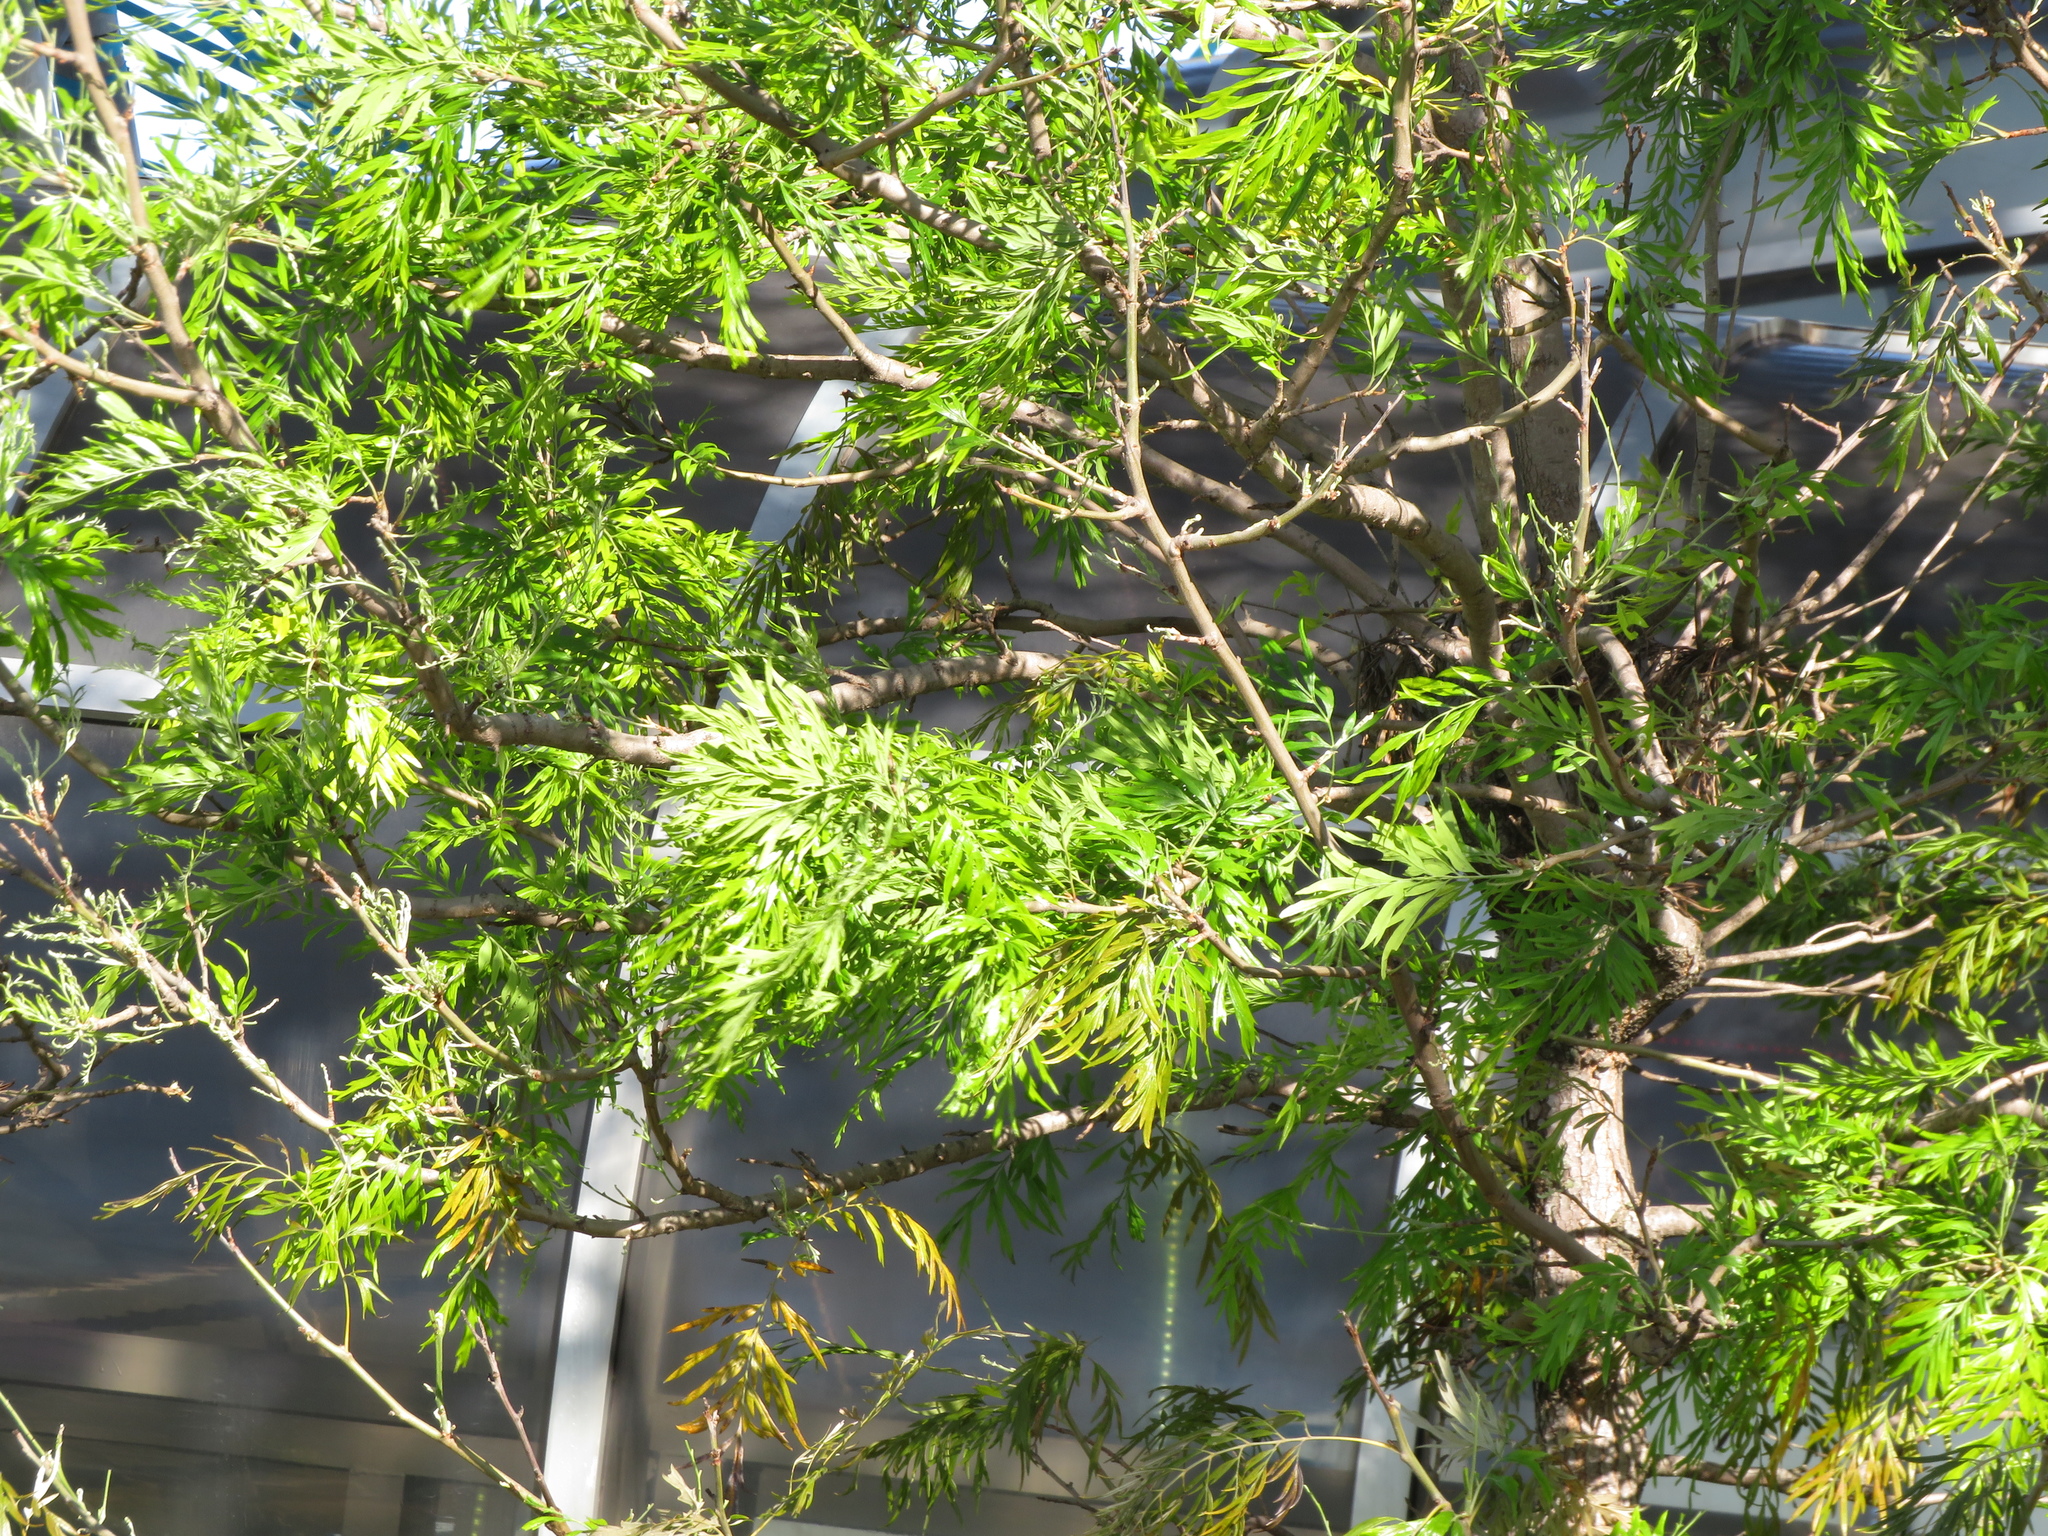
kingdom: Plantae
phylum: Tracheophyta
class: Magnoliopsida
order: Proteales
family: Proteaceae
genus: Grevillea
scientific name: Grevillea robusta
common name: Silkoak
